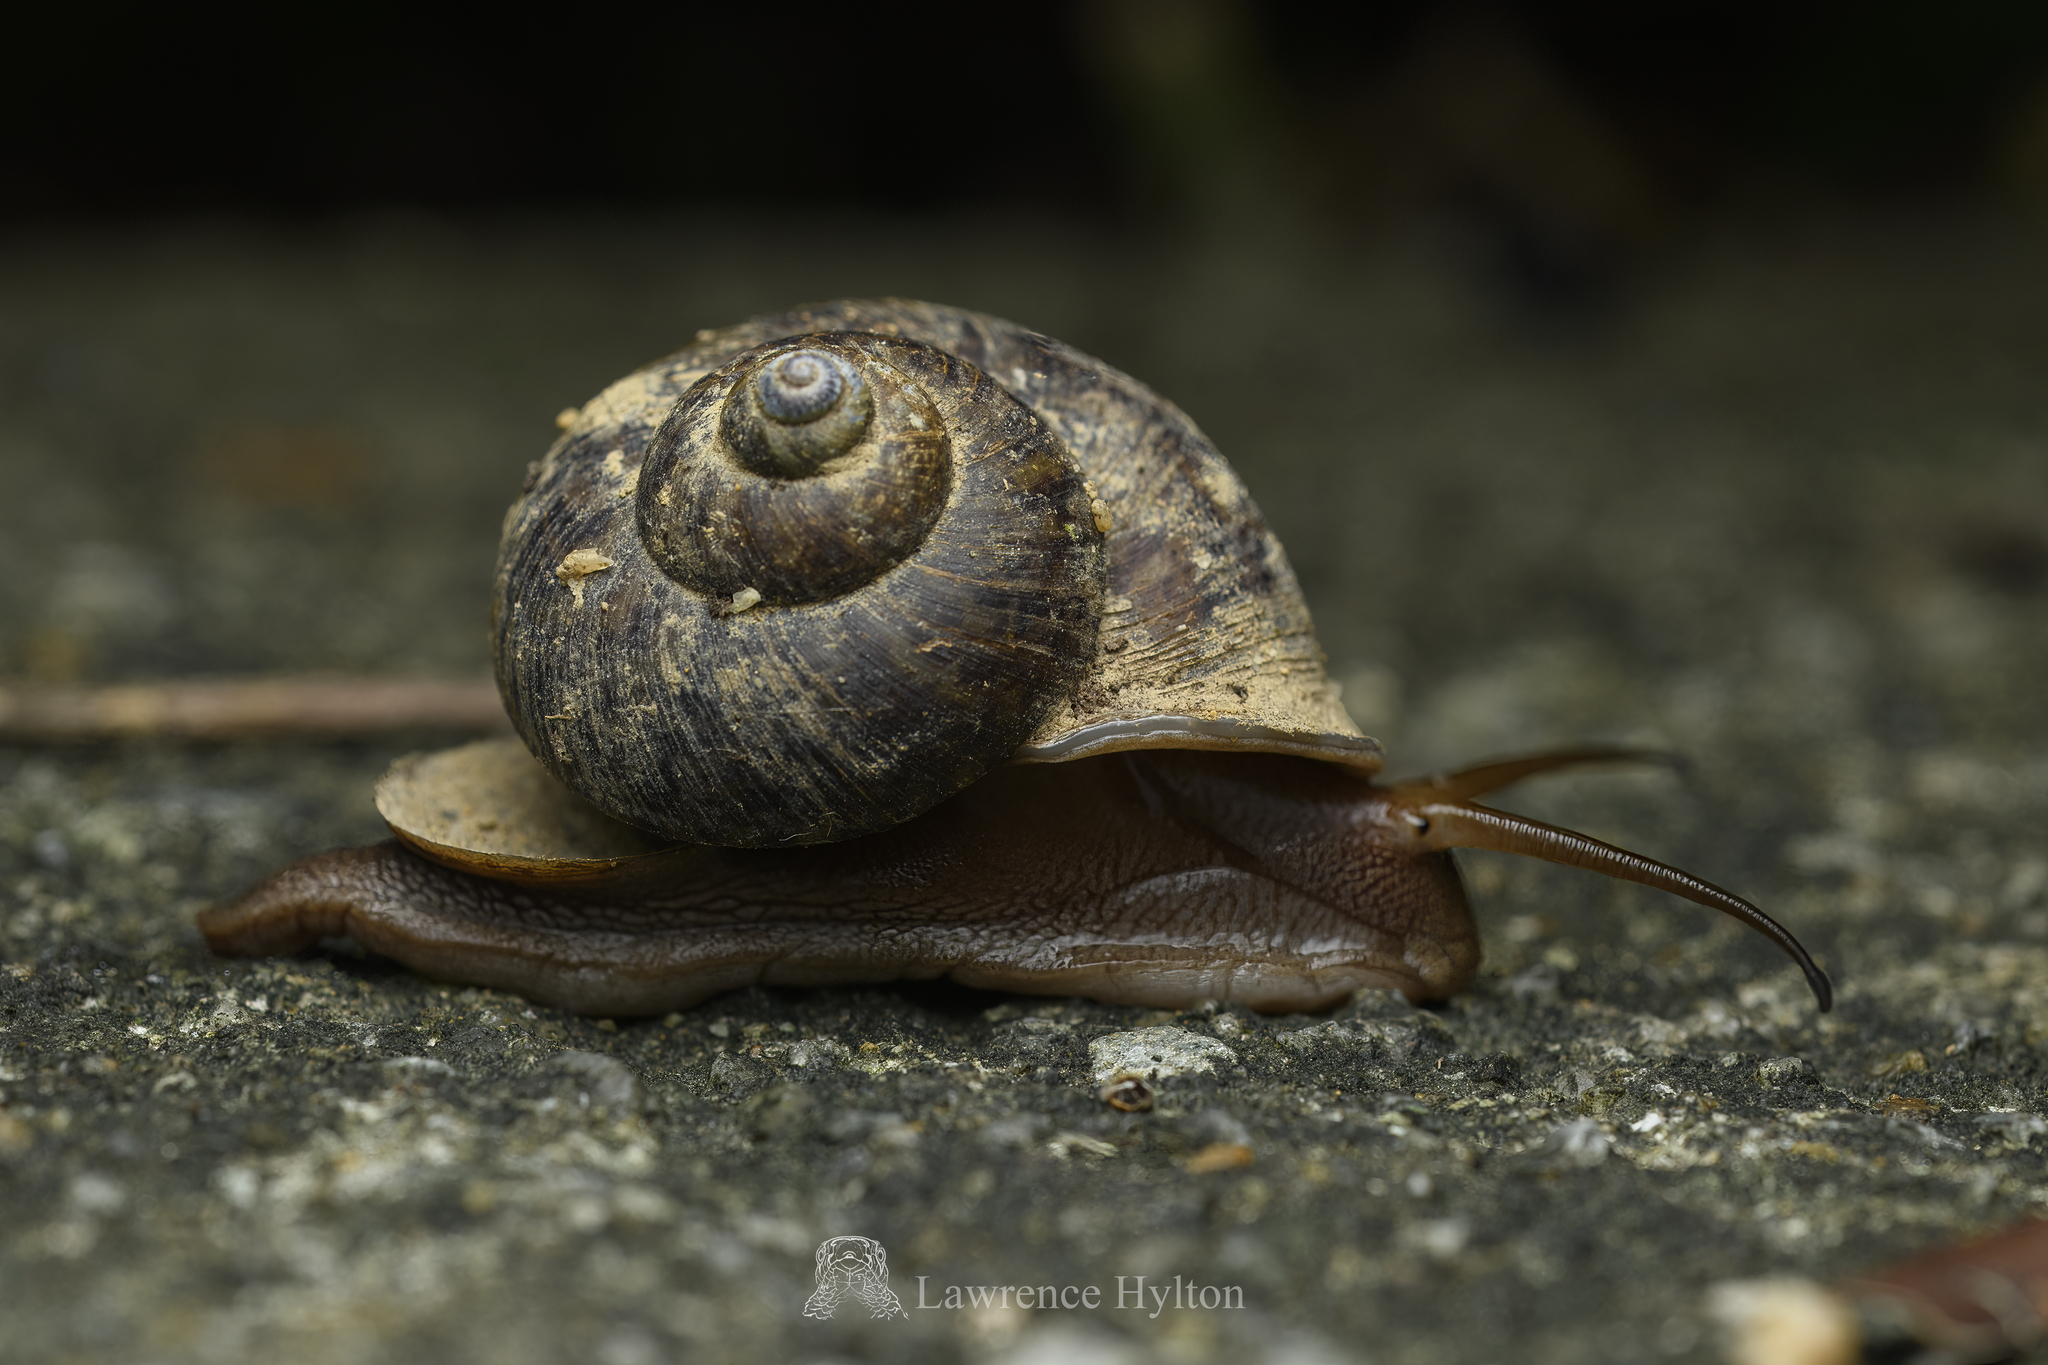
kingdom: Animalia
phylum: Mollusca
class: Gastropoda
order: Architaenioglossa
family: Cyclophoridae
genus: Cyclophorus
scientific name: Cyclophorus punctatus
